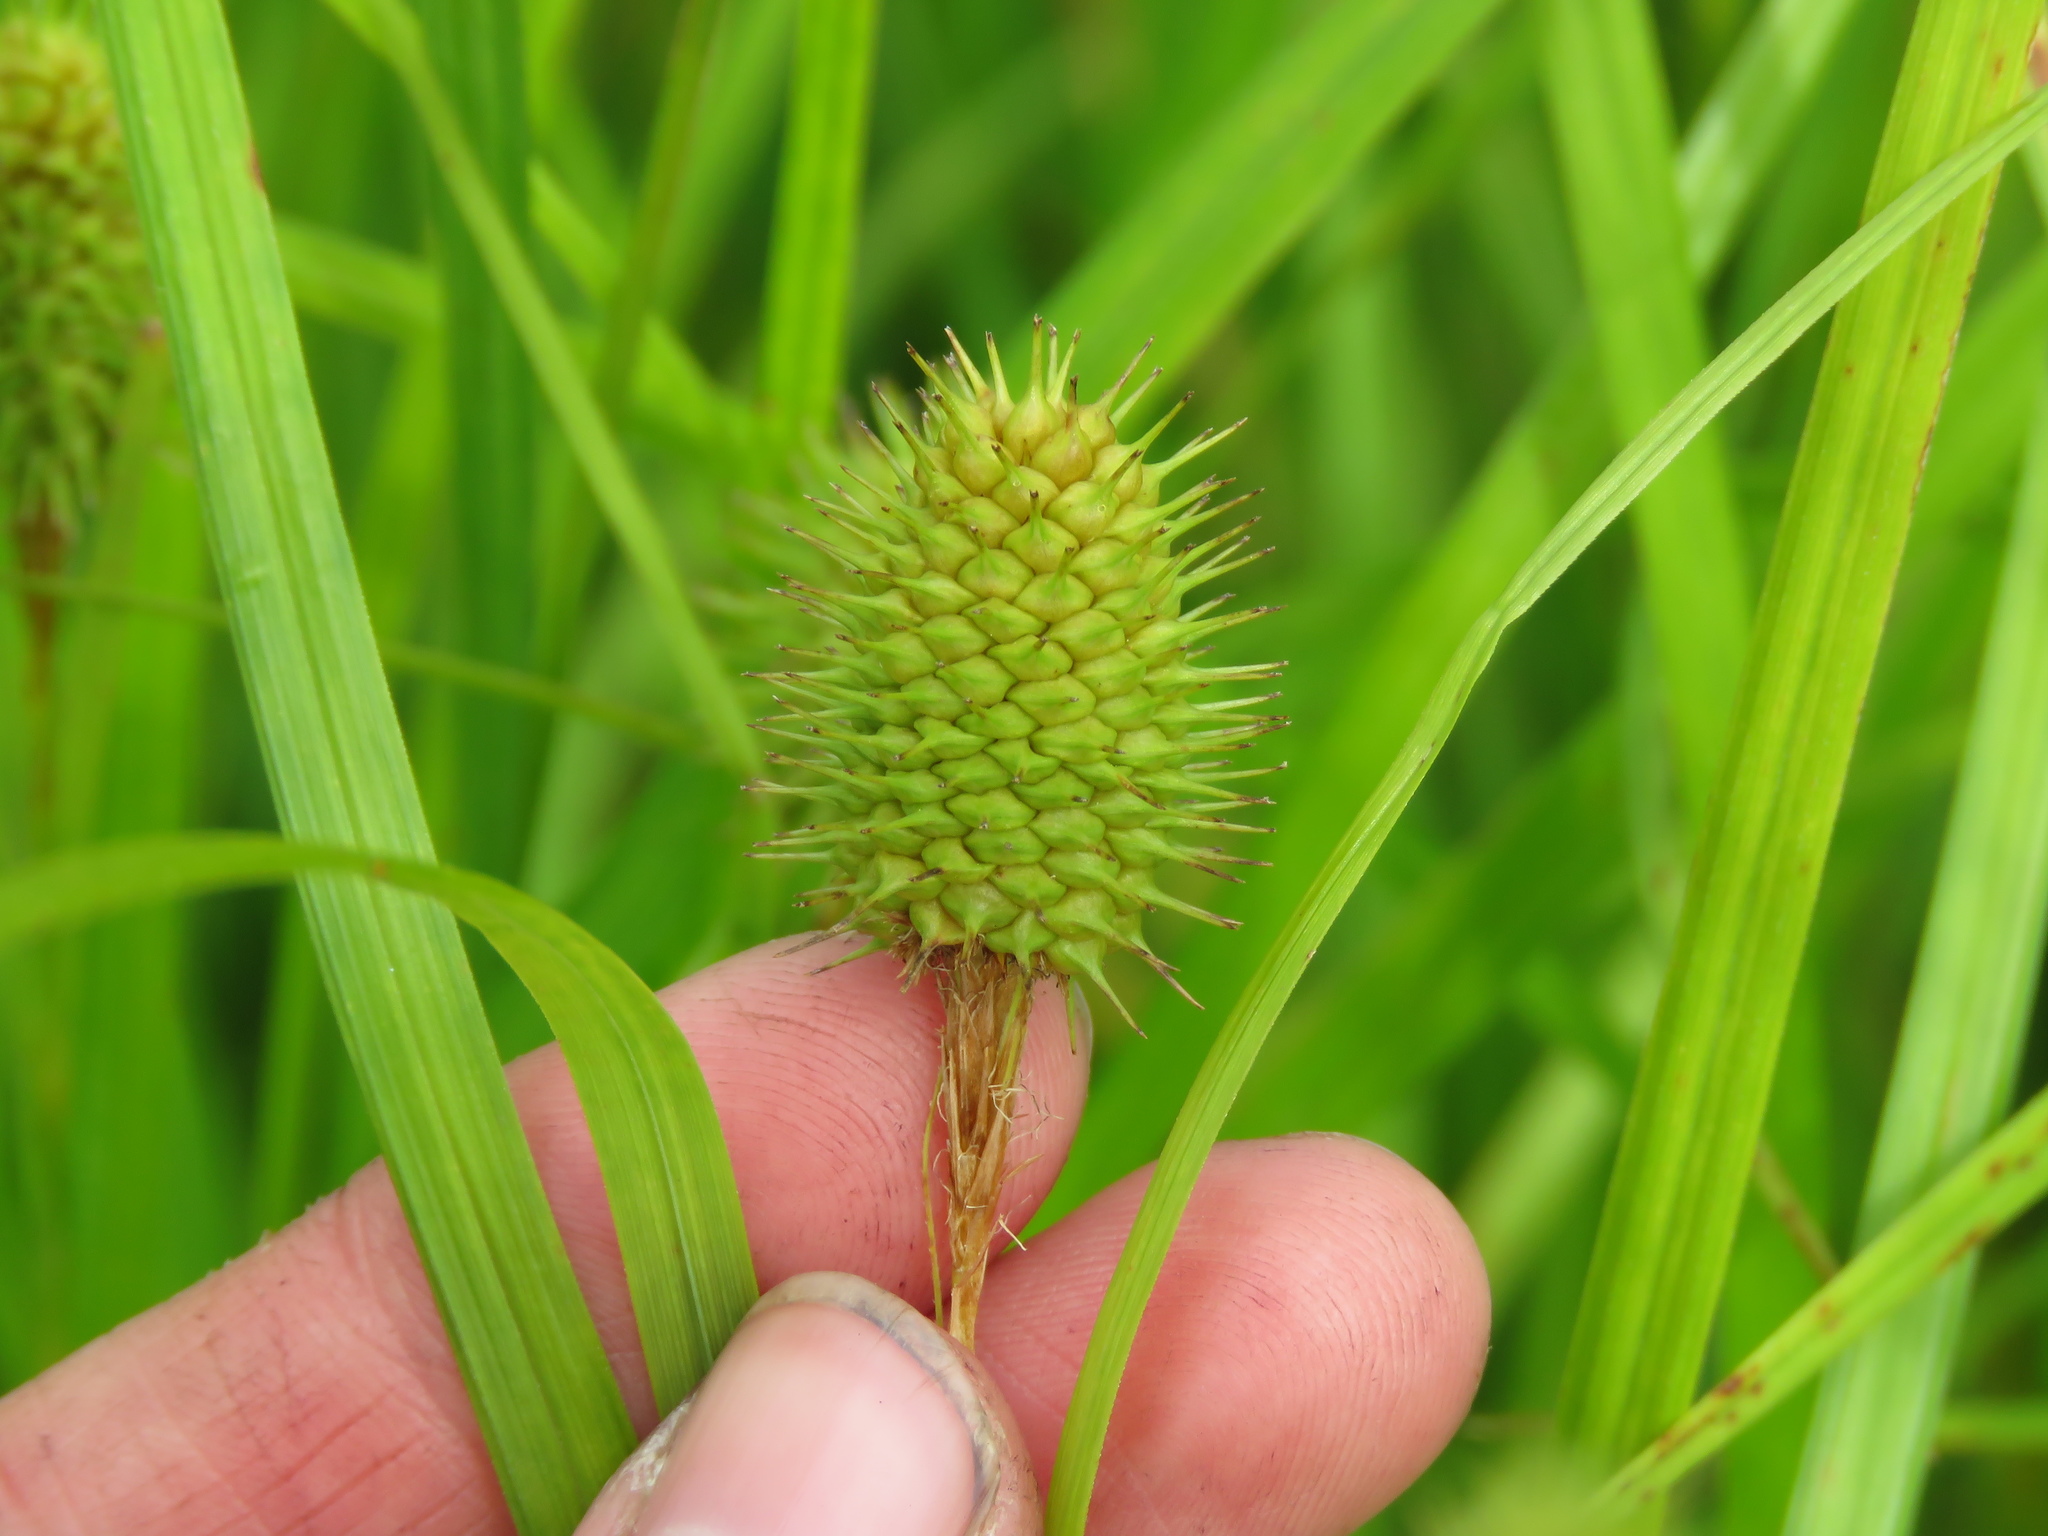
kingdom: Plantae
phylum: Tracheophyta
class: Liliopsida
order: Poales
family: Cyperaceae
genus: Carex
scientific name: Carex squarrosa
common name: Narrow-leaved cattail sedge
